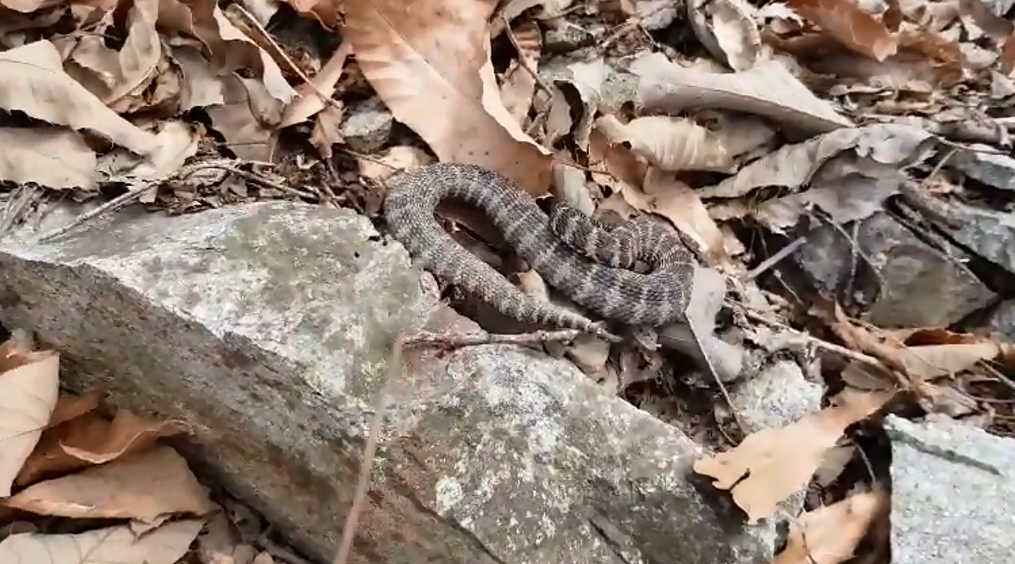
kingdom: Animalia
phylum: Chordata
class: Squamata
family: Viperidae
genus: Gloydius
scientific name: Gloydius intermedius
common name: Central asian pit viper
